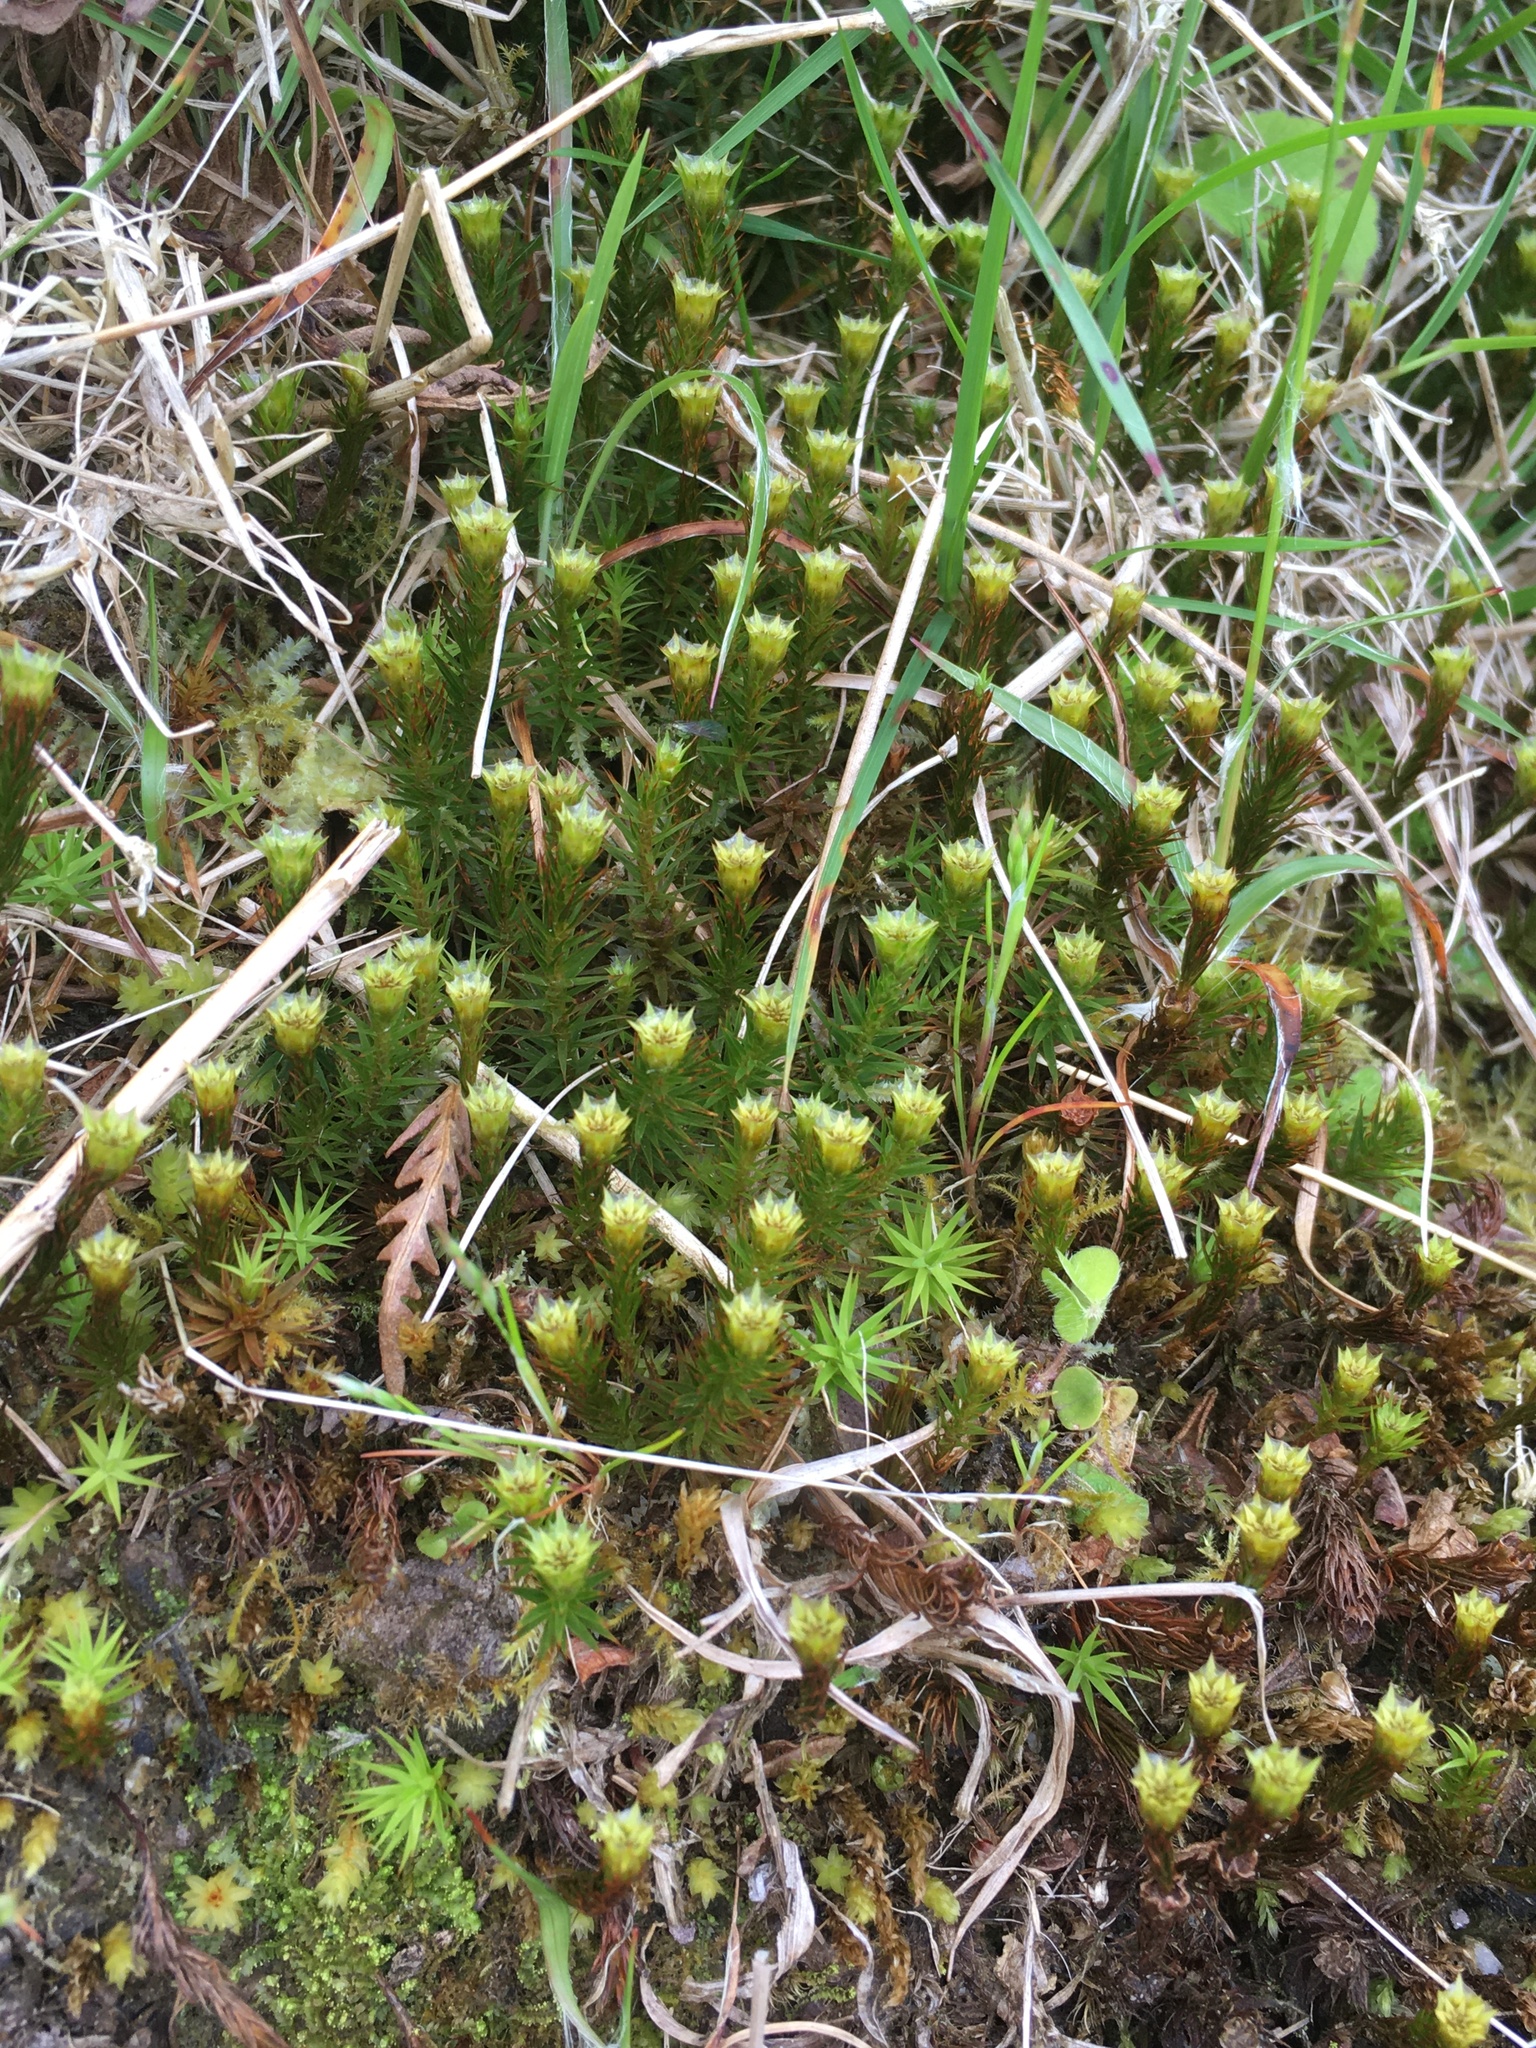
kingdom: Plantae
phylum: Bryophyta
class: Polytrichopsida
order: Polytrichales
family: Polytrichaceae
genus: Polytrichum
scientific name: Polytrichum juniperinum
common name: Juniper haircap moss
